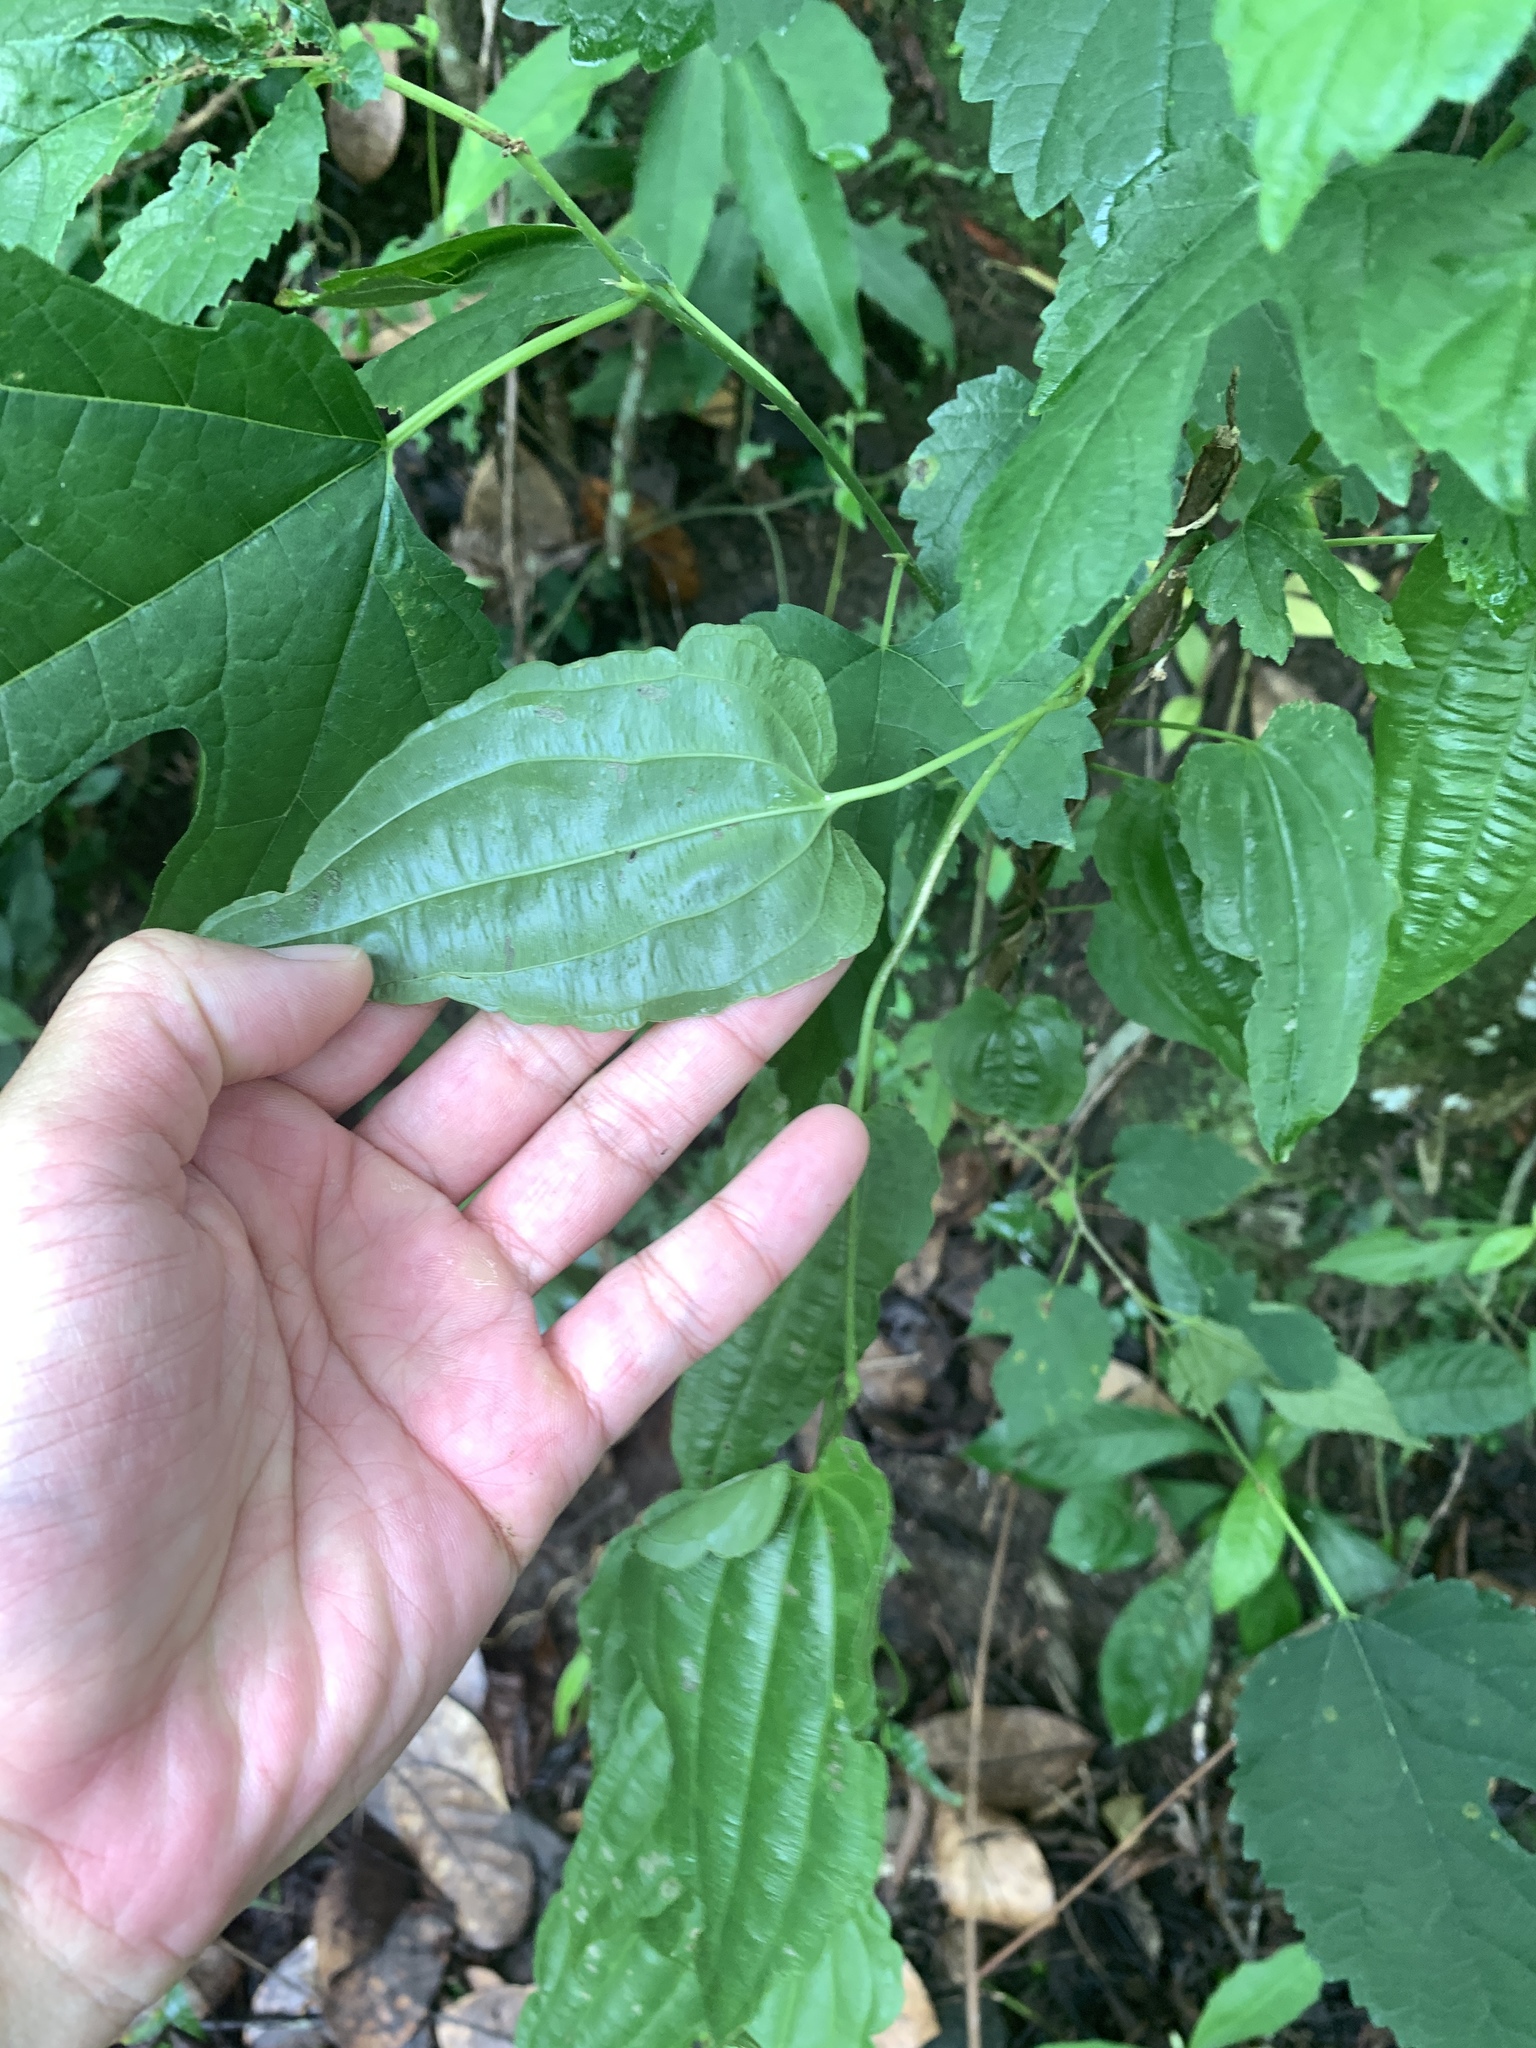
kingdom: Plantae
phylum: Tracheophyta
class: Liliopsida
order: Pandanales
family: Stemonaceae
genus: Stemona
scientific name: Stemona tuberosa
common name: Stemona
